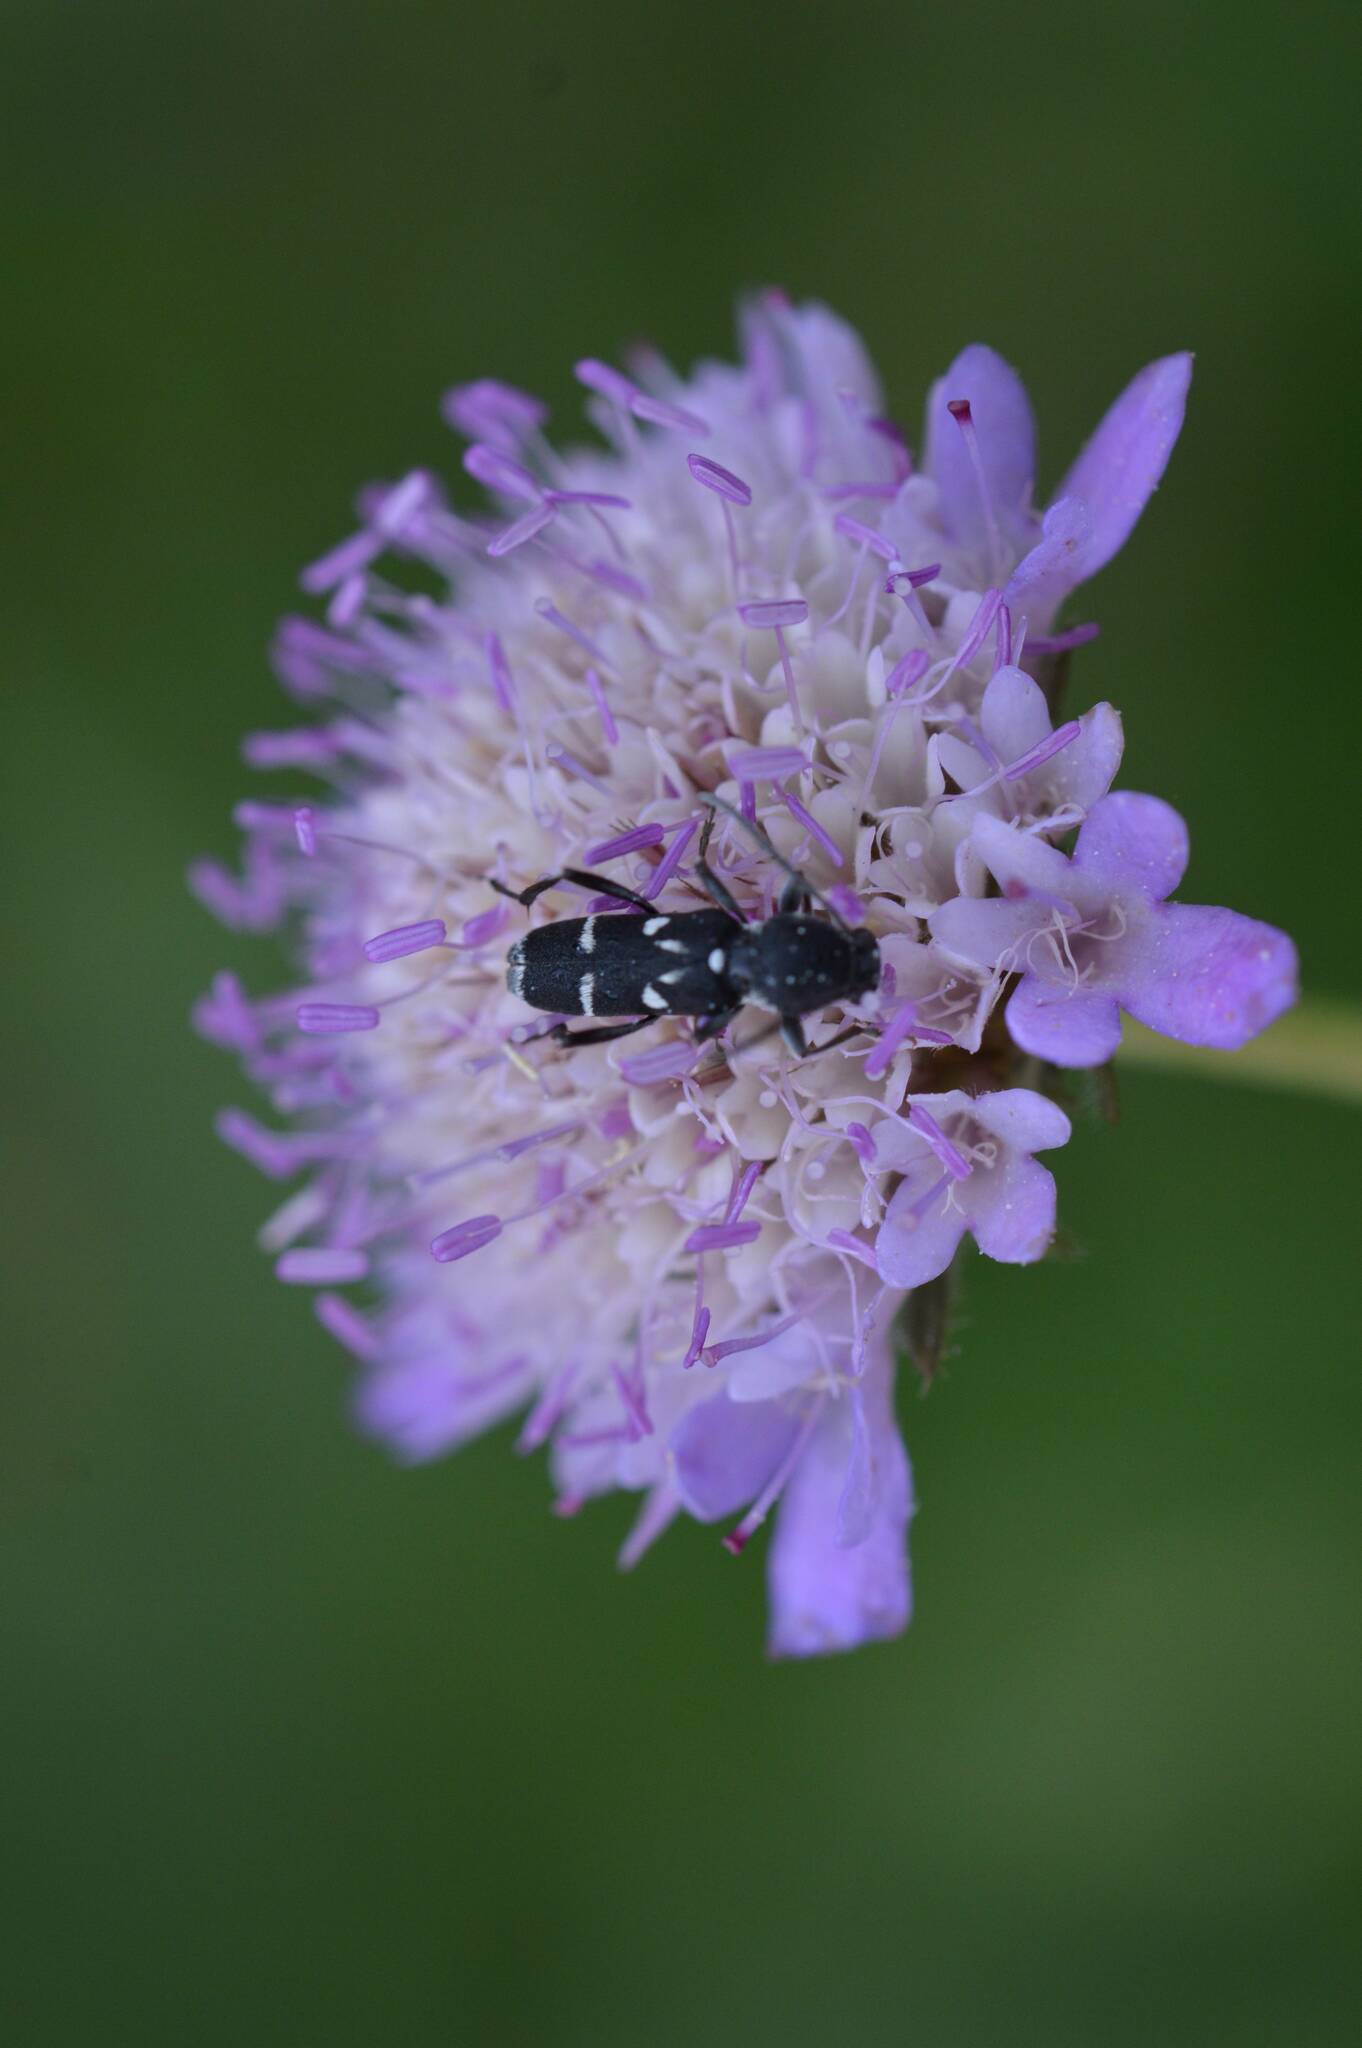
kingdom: Animalia
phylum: Arthropoda
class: Insecta
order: Coleoptera
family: Cerambycidae
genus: Chlorophorus
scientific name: Chlorophorus pelleteri
